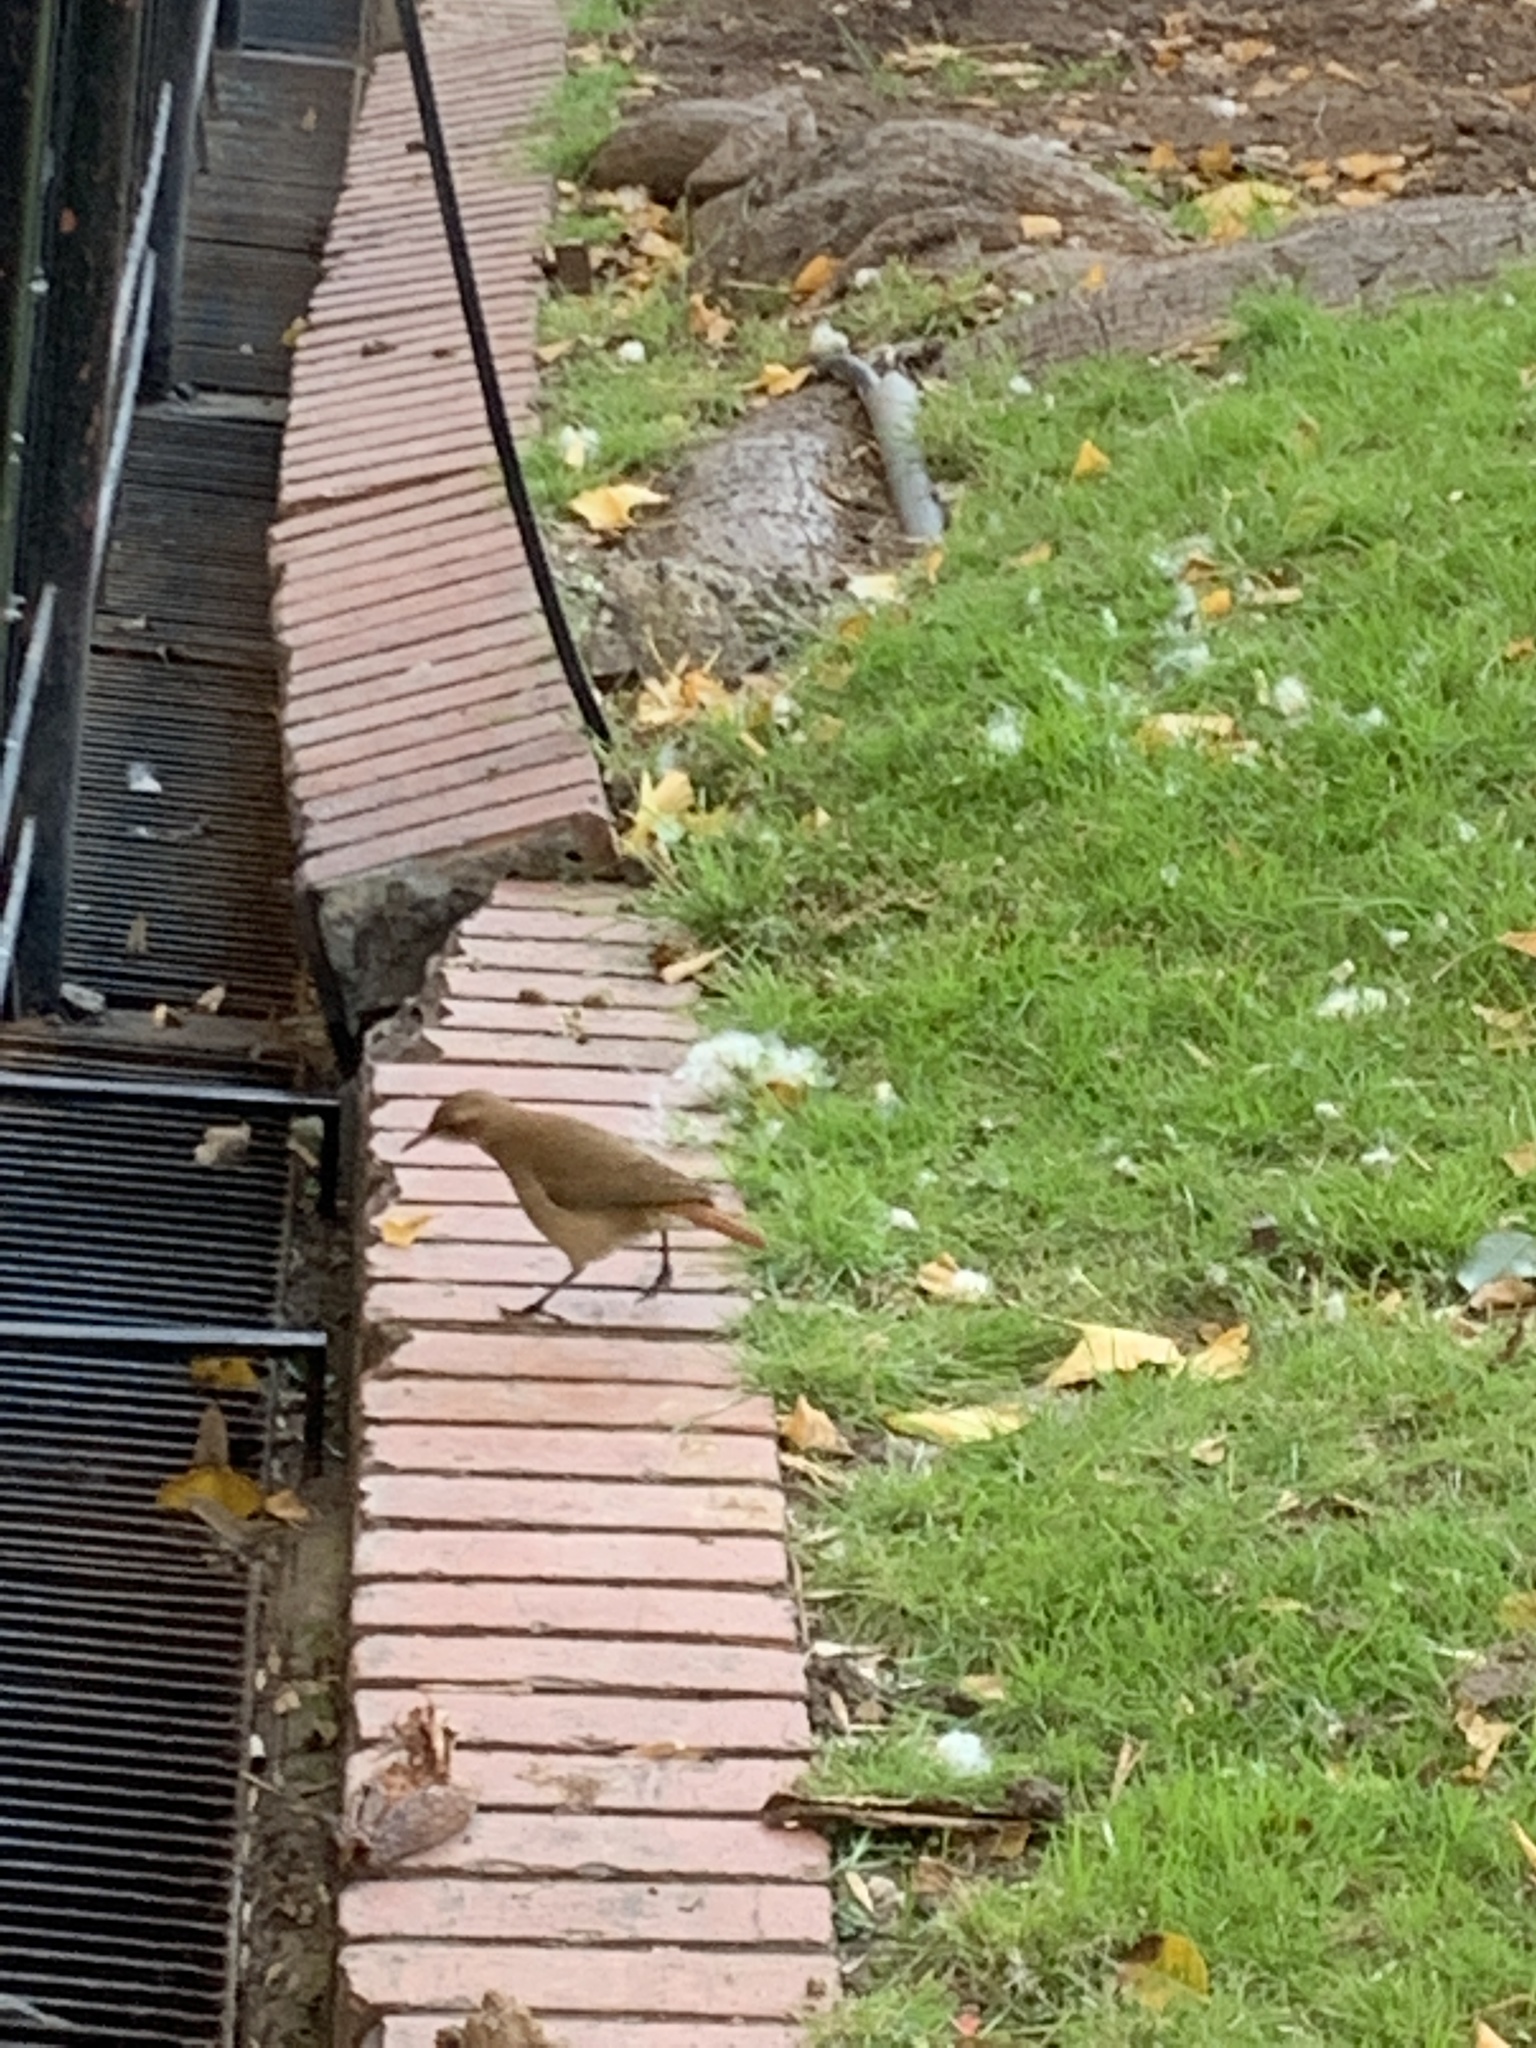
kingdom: Animalia
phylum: Chordata
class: Aves
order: Passeriformes
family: Furnariidae
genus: Furnarius
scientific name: Furnarius rufus
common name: Rufous hornero
